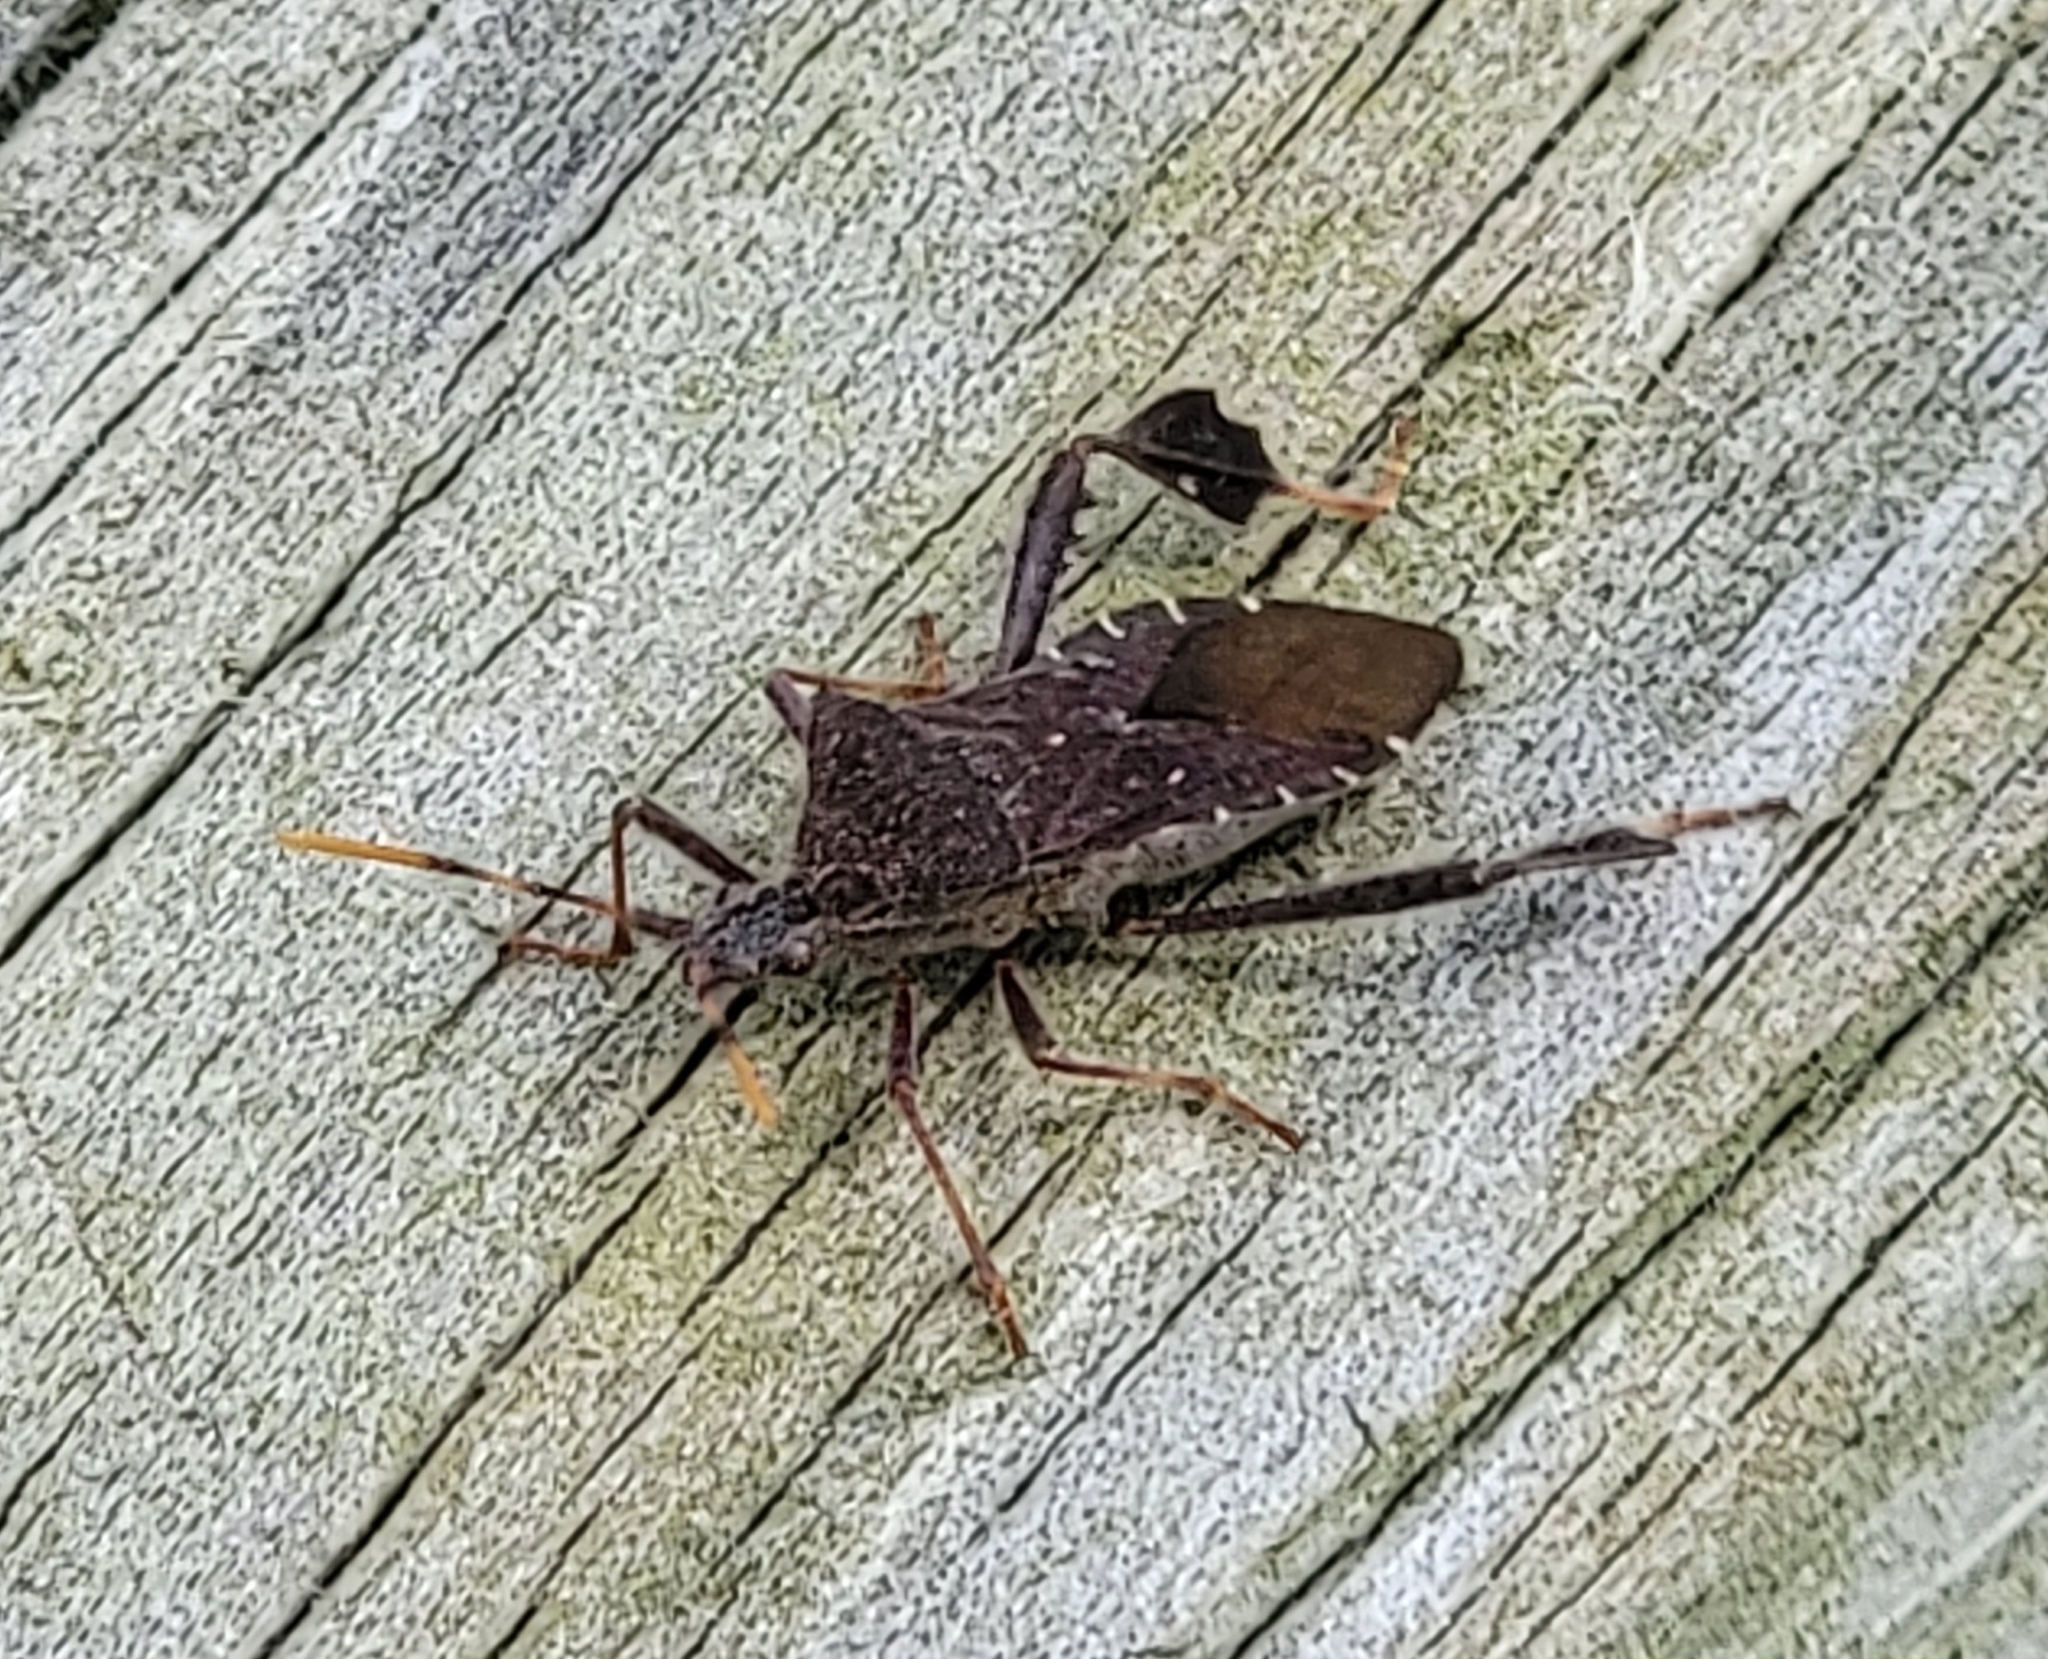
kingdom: Animalia
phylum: Arthropoda
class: Insecta
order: Hemiptera
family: Coreidae
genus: Leptoglossus
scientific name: Leptoglossus oppositus
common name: Northern leaf-footed bug
